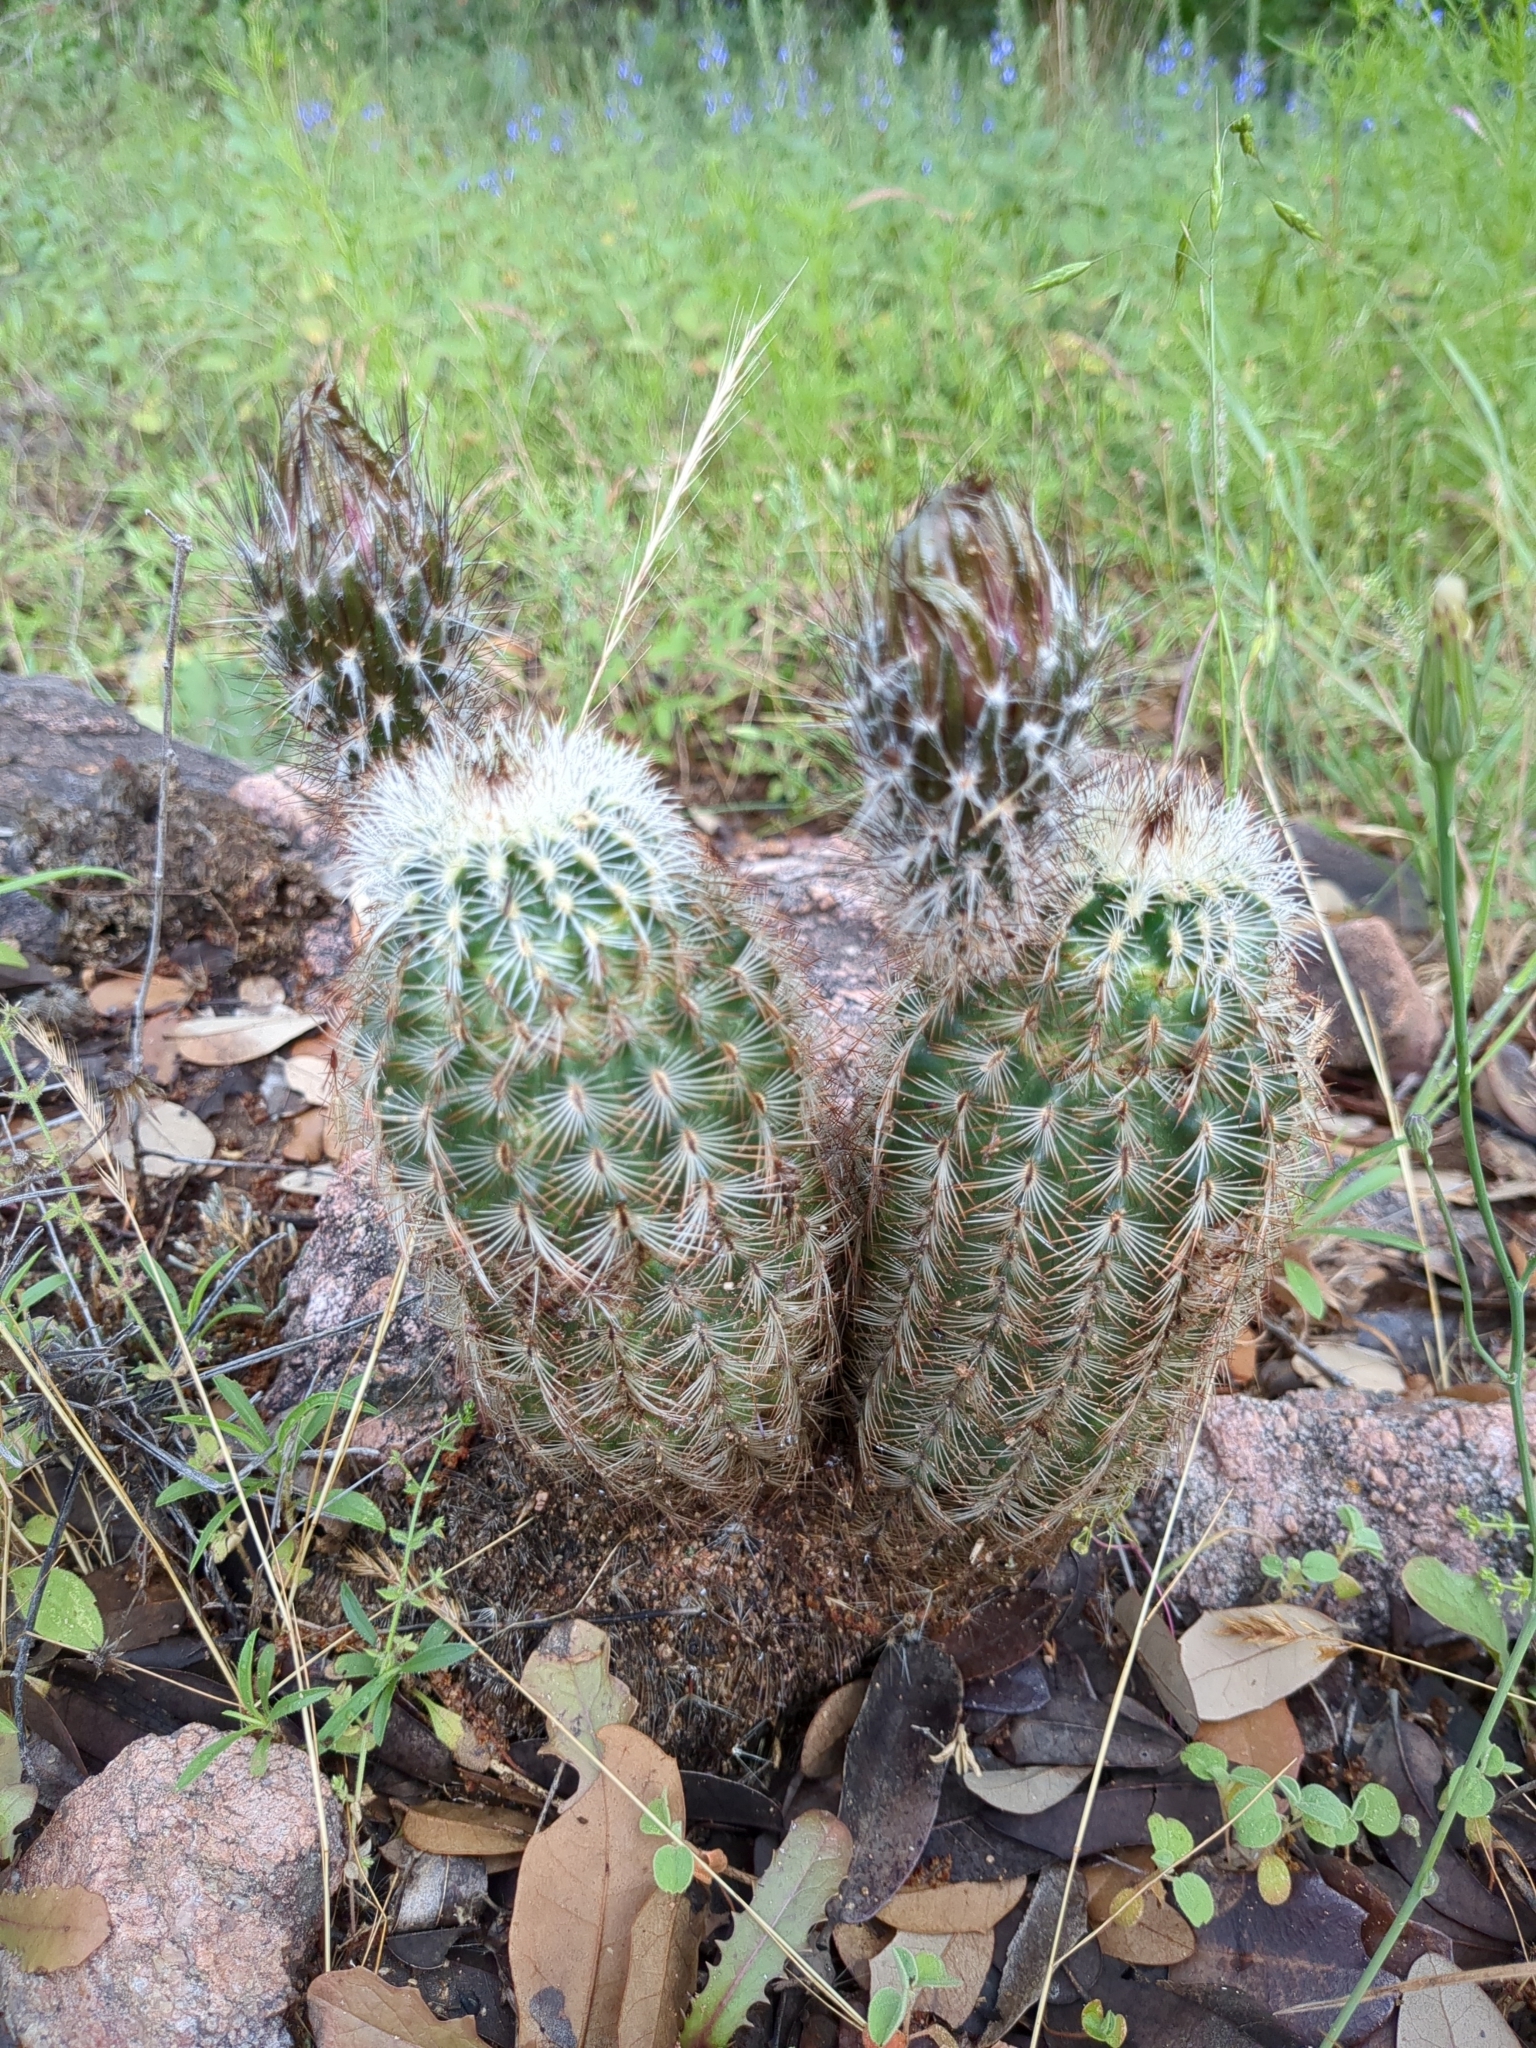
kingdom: Plantae
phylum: Tracheophyta
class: Magnoliopsida
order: Caryophyllales
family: Cactaceae
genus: Echinocereus
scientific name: Echinocereus reichenbachii
